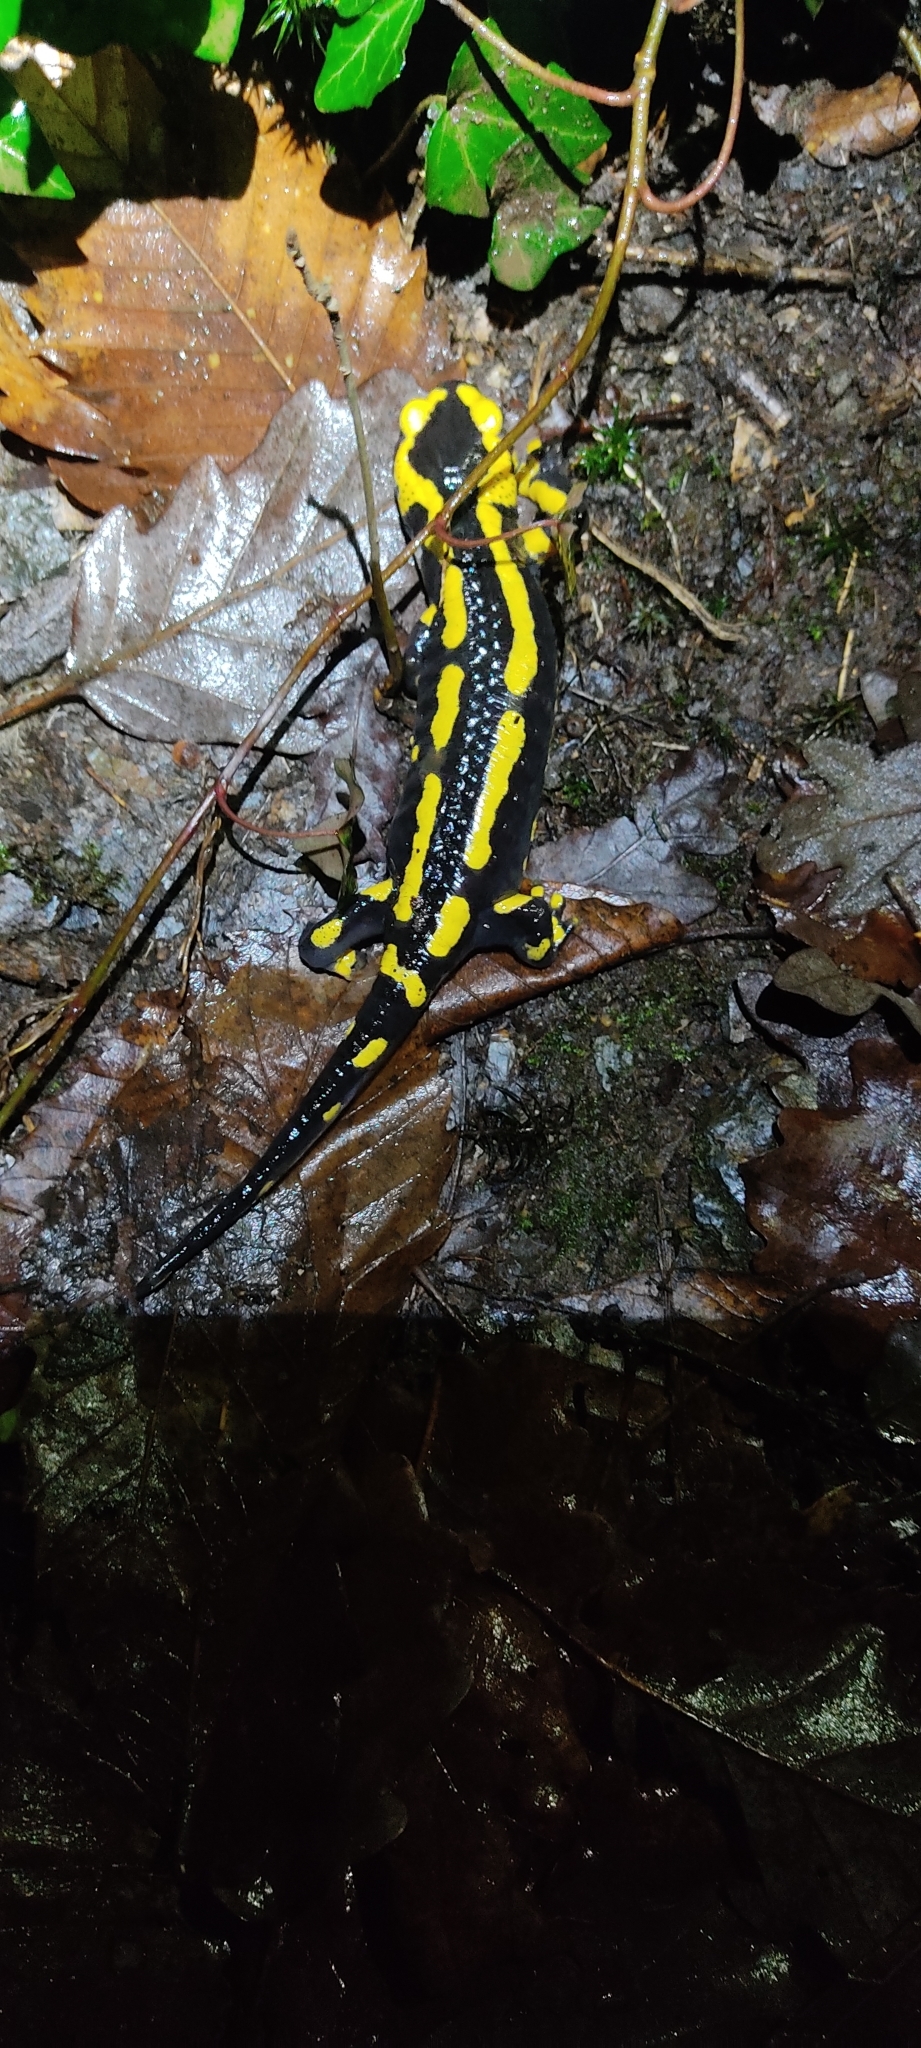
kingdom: Animalia
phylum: Chordata
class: Amphibia
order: Caudata
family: Salamandridae
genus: Salamandra
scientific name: Salamandra salamandra
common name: Fire salamander
